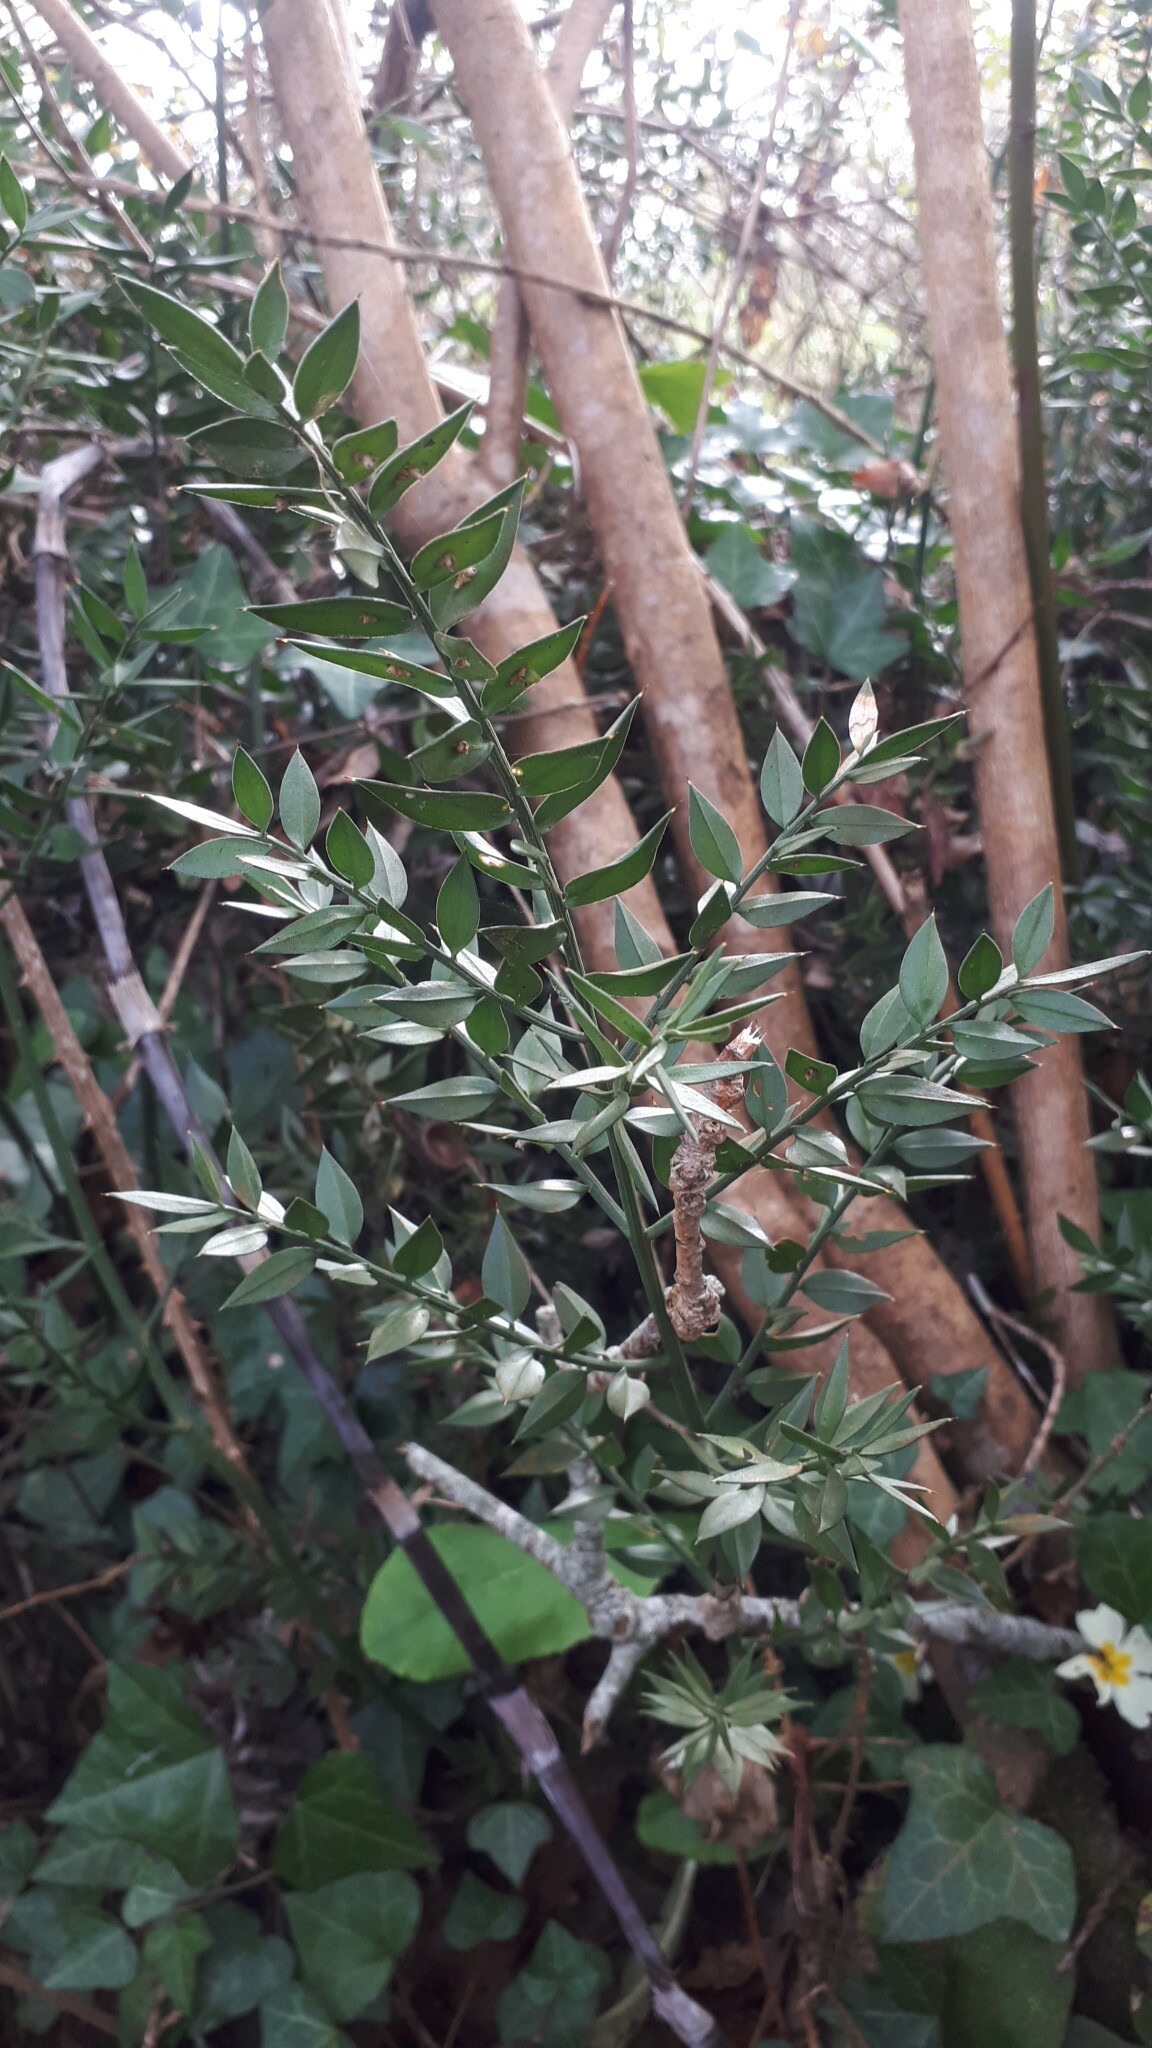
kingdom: Plantae
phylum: Tracheophyta
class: Liliopsida
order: Asparagales
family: Asparagaceae
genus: Ruscus
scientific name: Ruscus aculeatus
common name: Butcher's-broom
